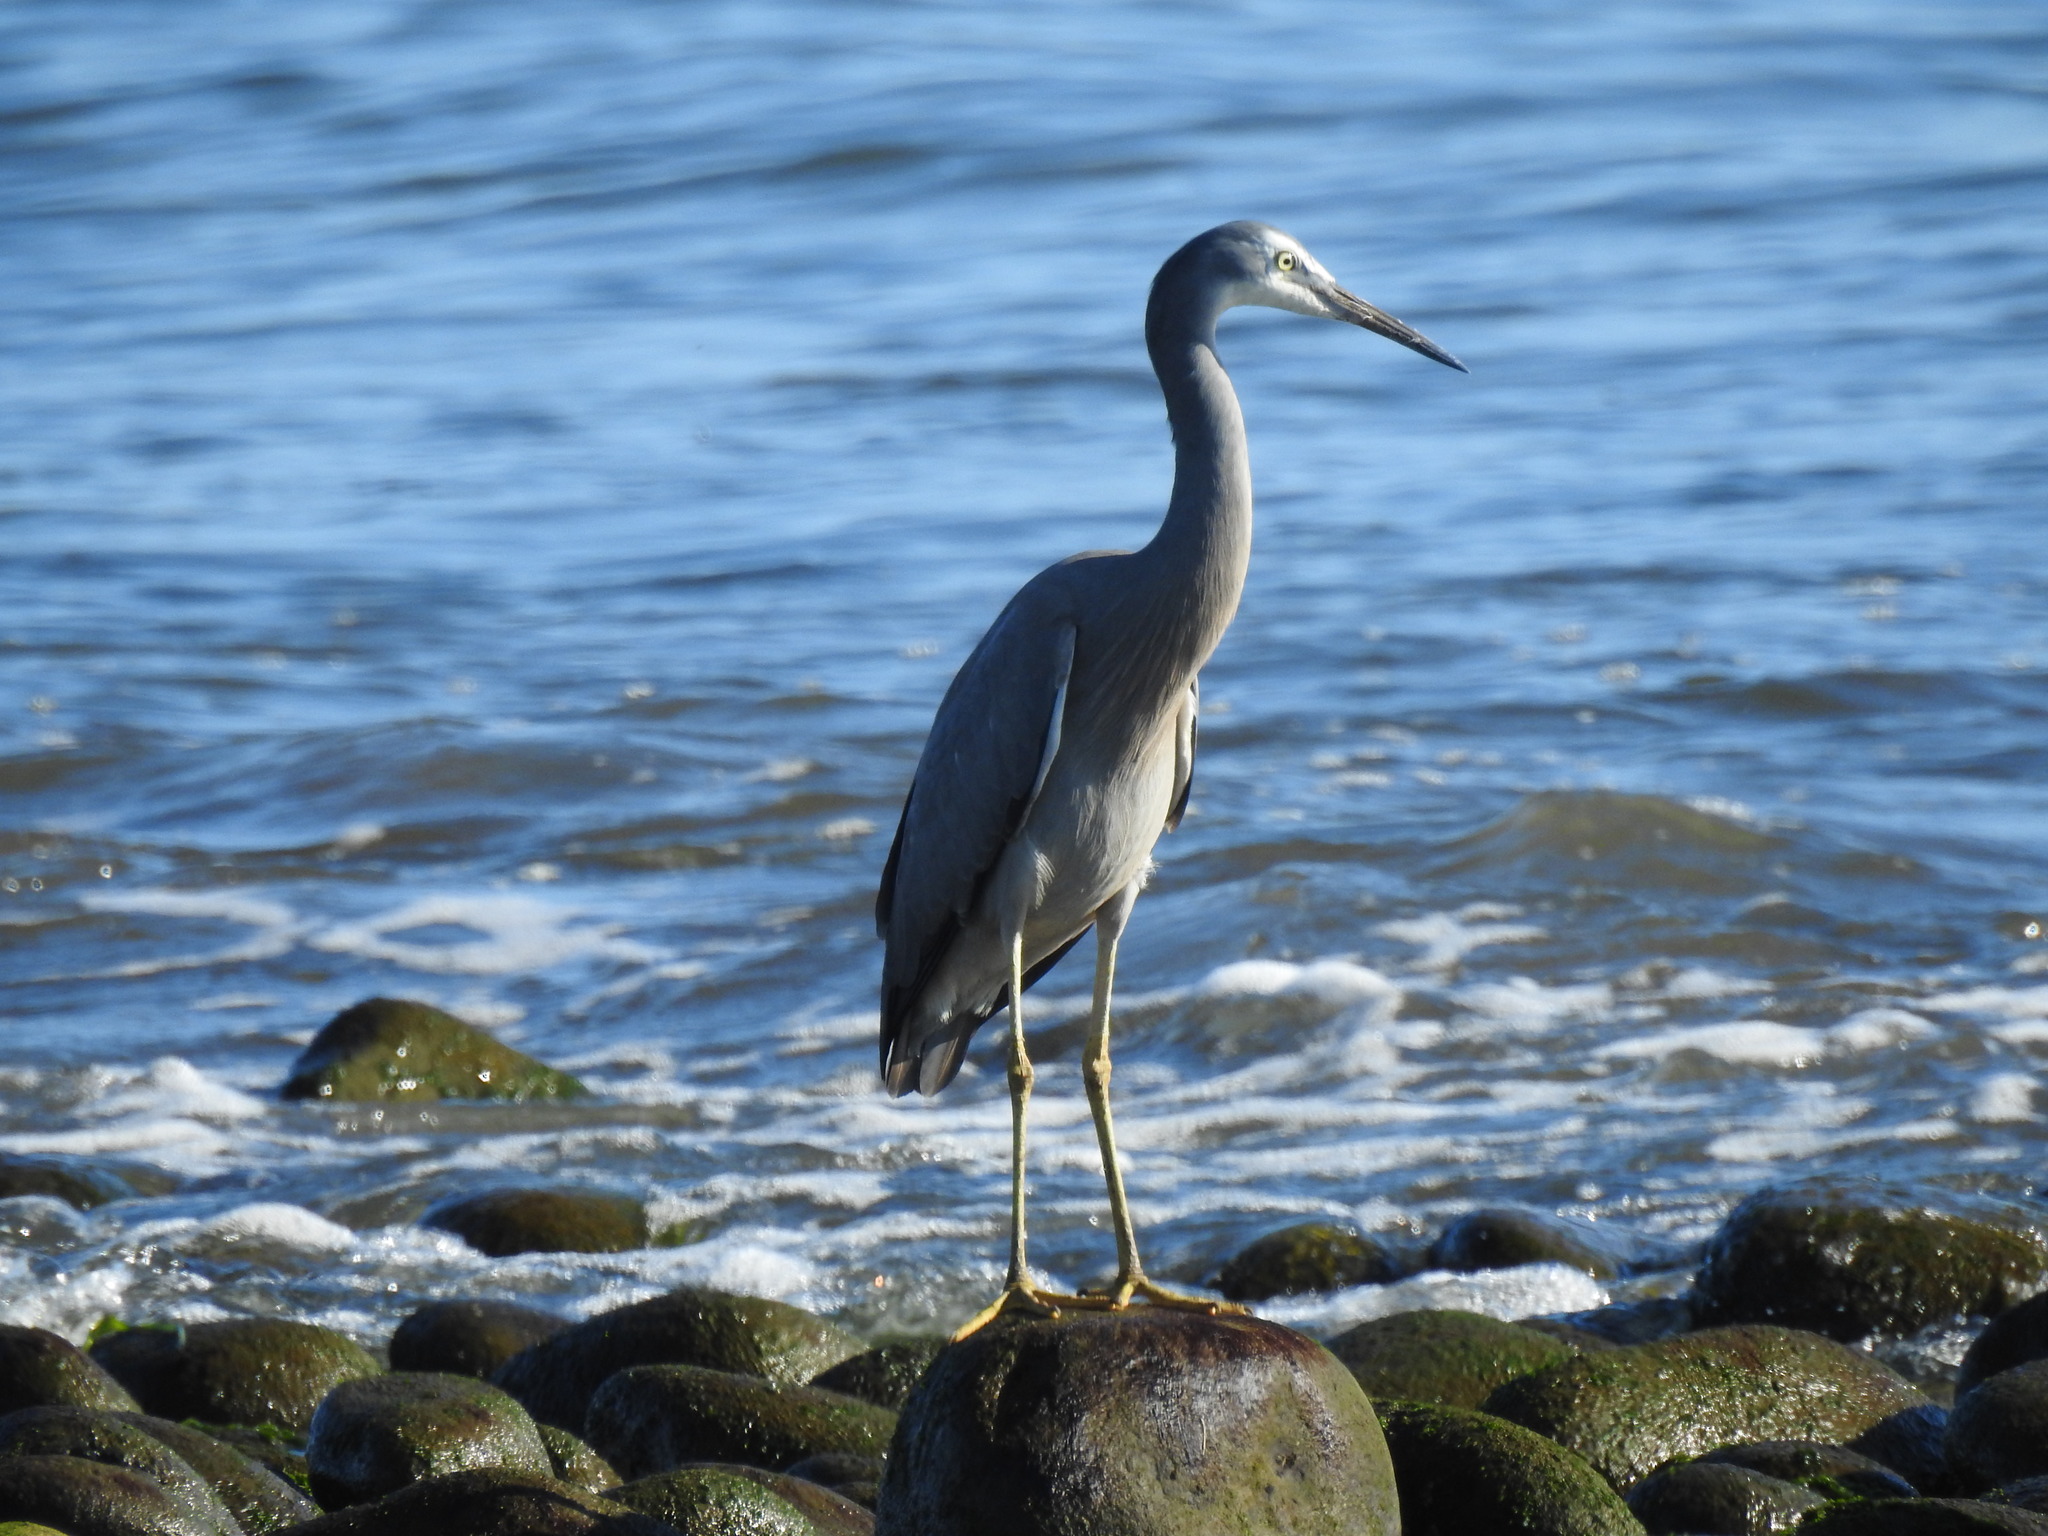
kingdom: Animalia
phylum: Chordata
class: Aves
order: Pelecaniformes
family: Ardeidae
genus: Egretta
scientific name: Egretta novaehollandiae
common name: White-faced heron
